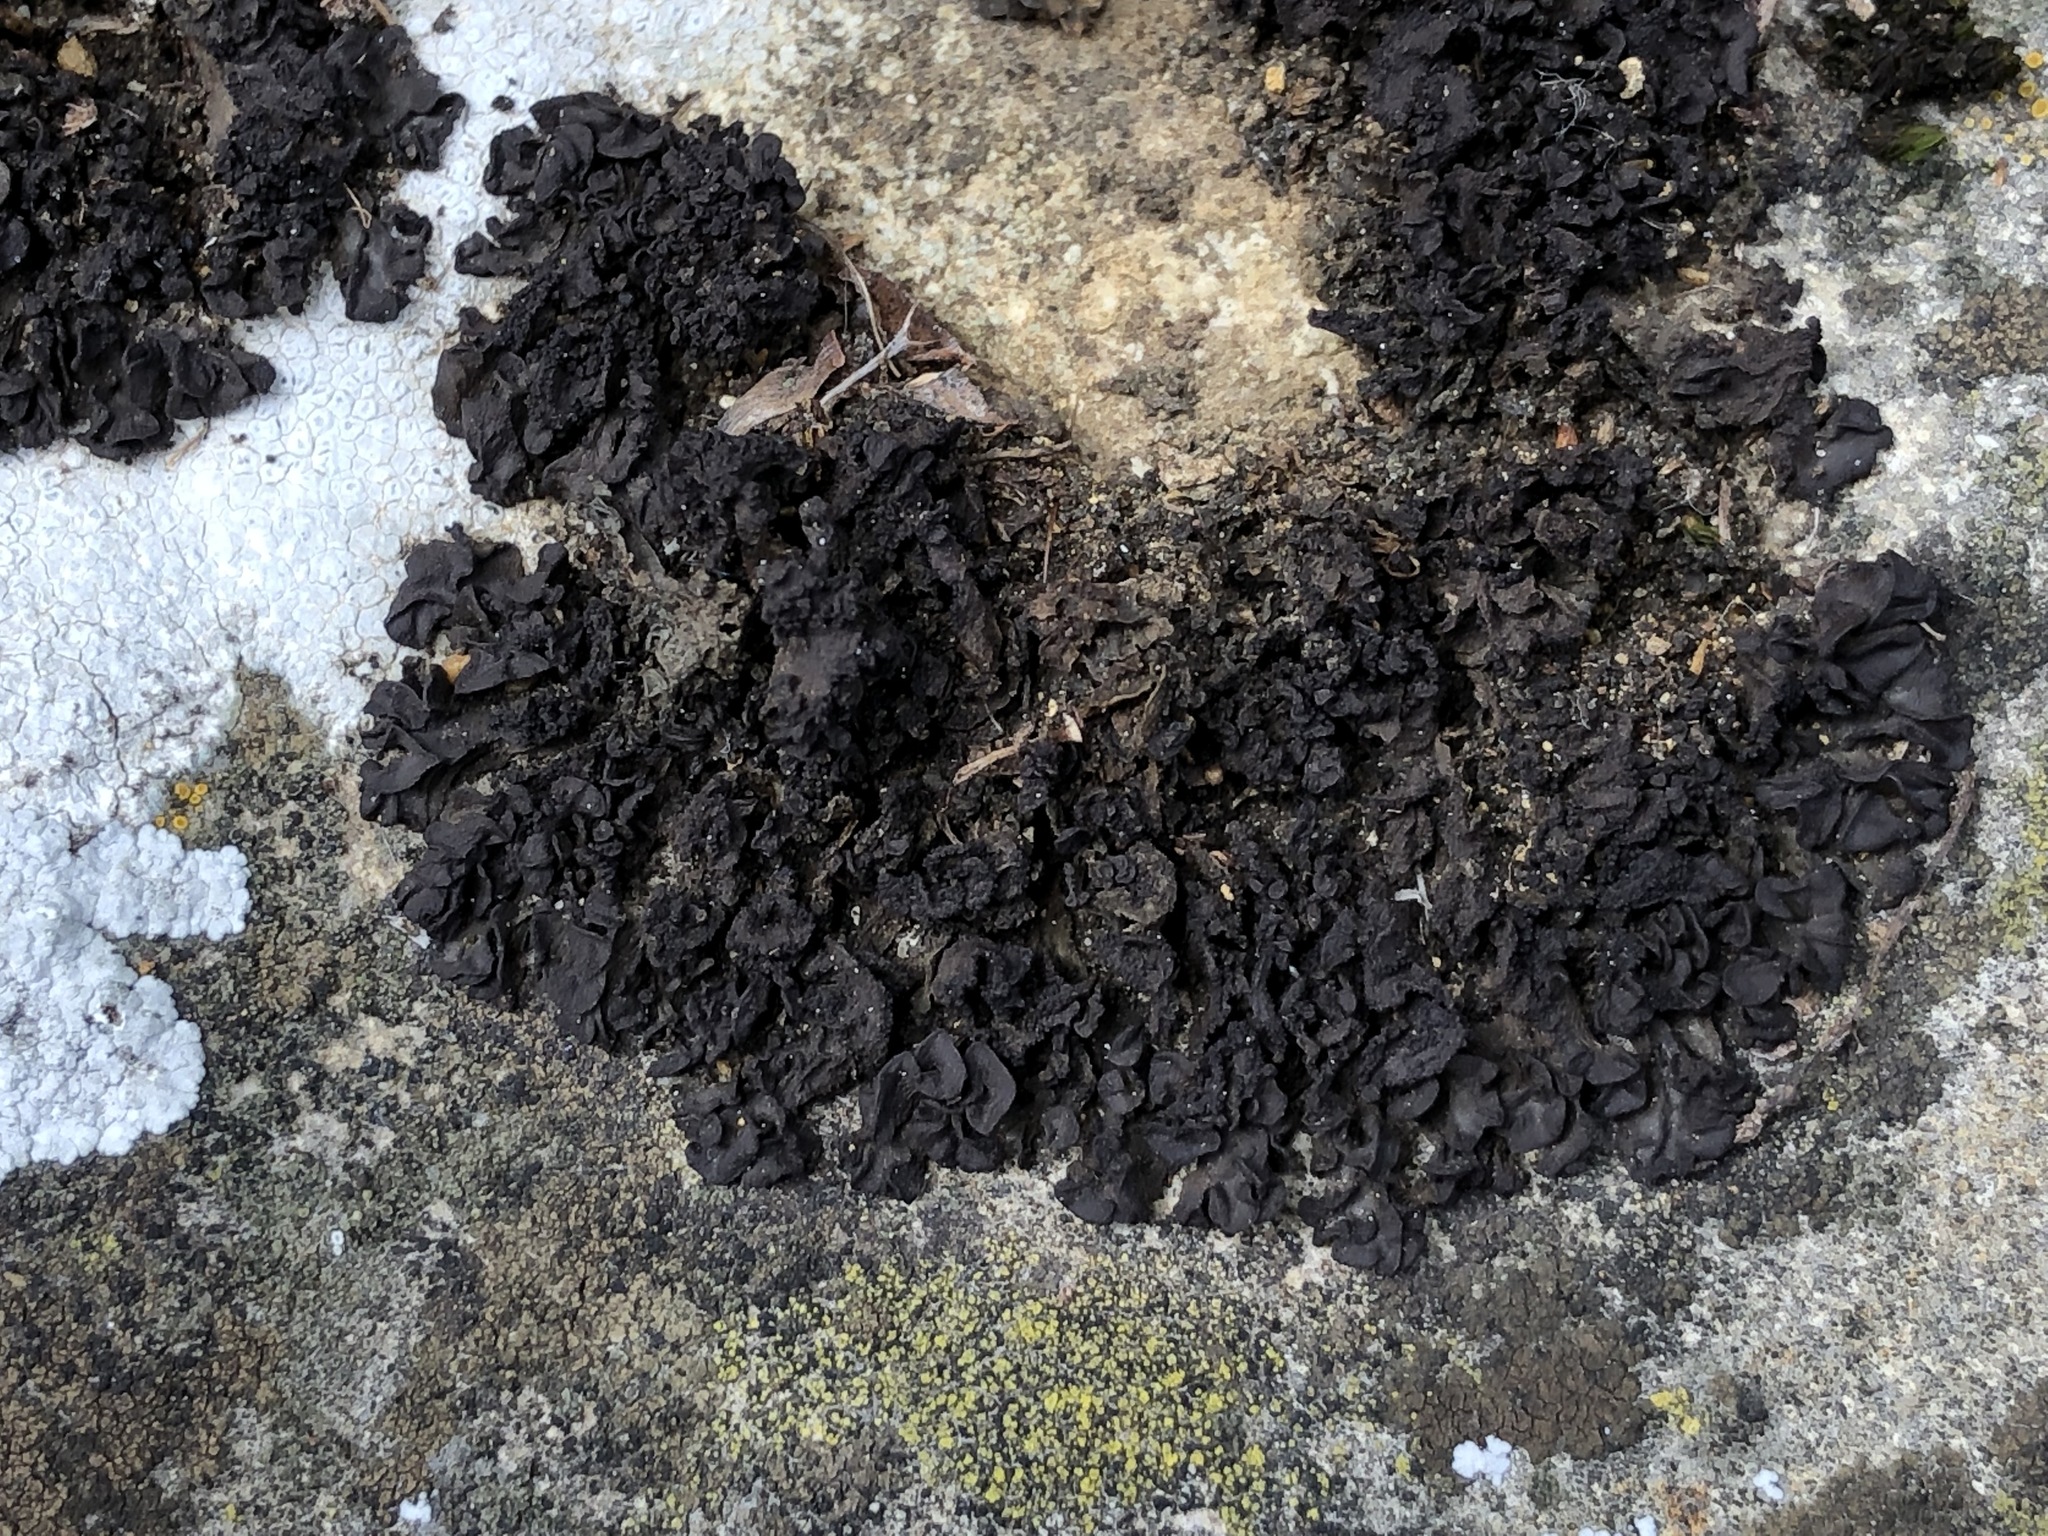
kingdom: Fungi
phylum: Ascomycota
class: Lecanoromycetes
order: Peltigerales
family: Collemataceae
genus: Scytinium
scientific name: Scytinium plicatile
